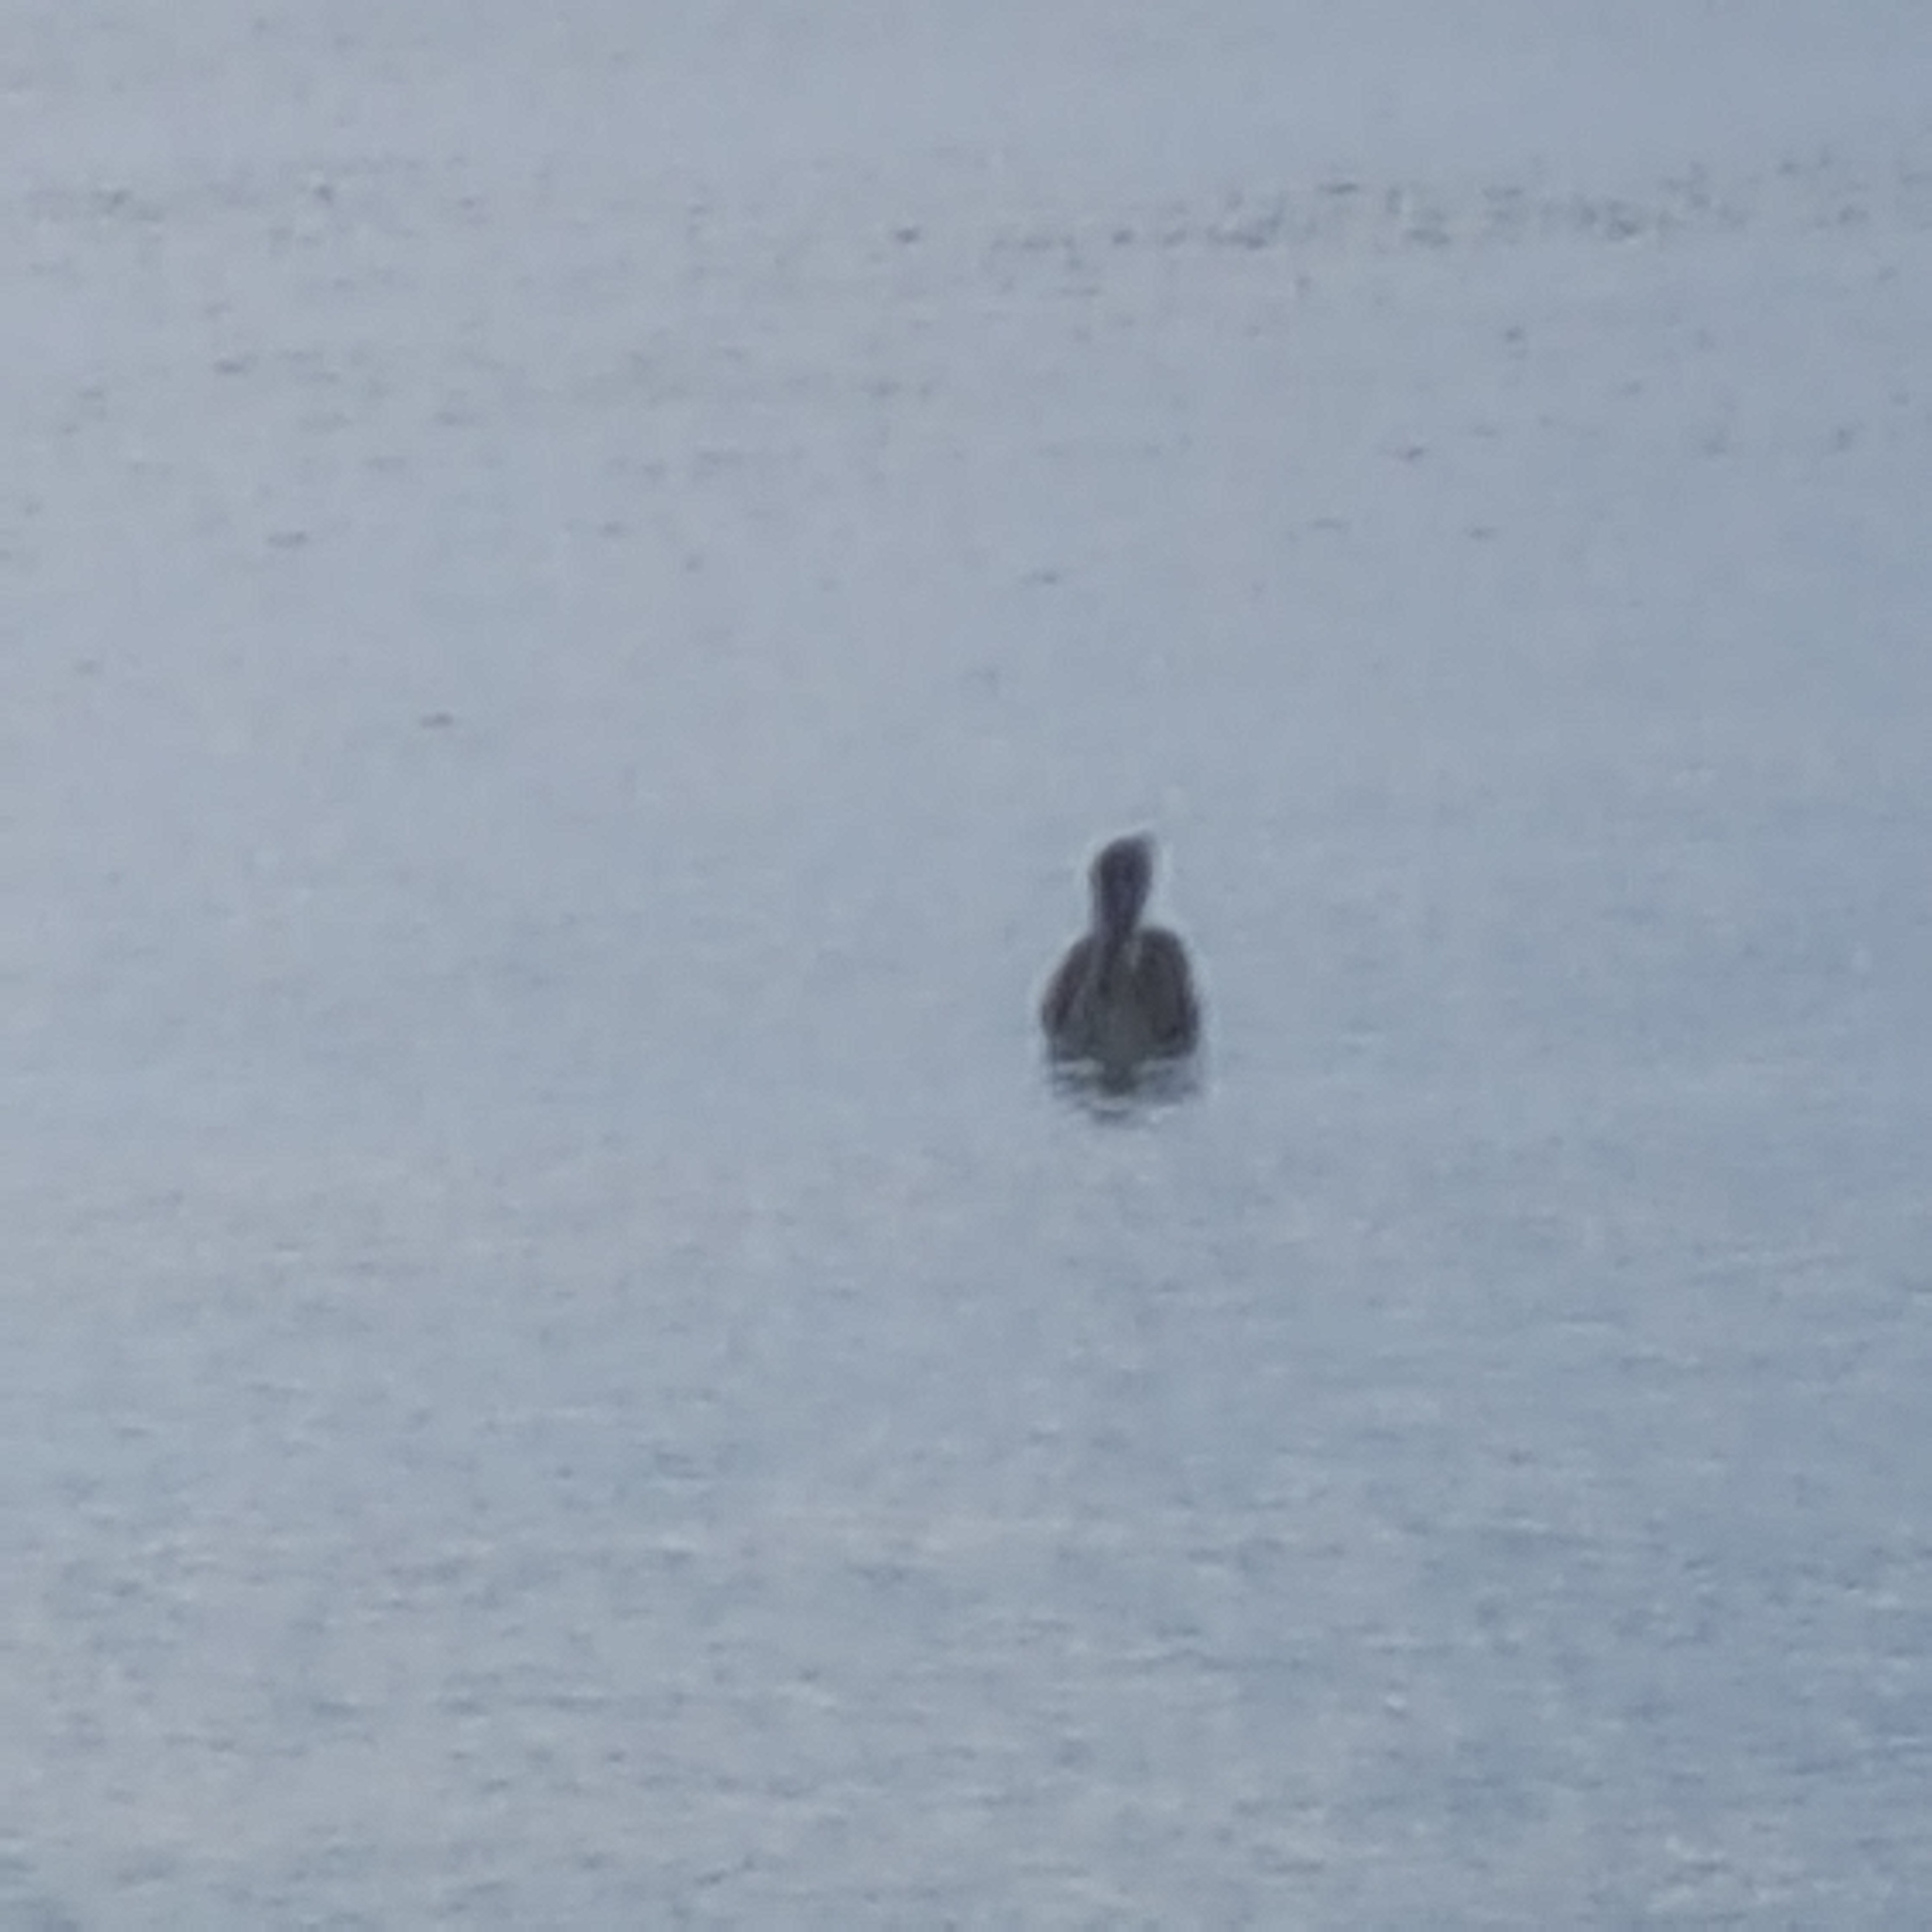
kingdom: Animalia
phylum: Chordata
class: Aves
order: Pelecaniformes
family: Pelecanidae
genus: Pelecanus
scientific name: Pelecanus occidentalis
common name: Brown pelican
